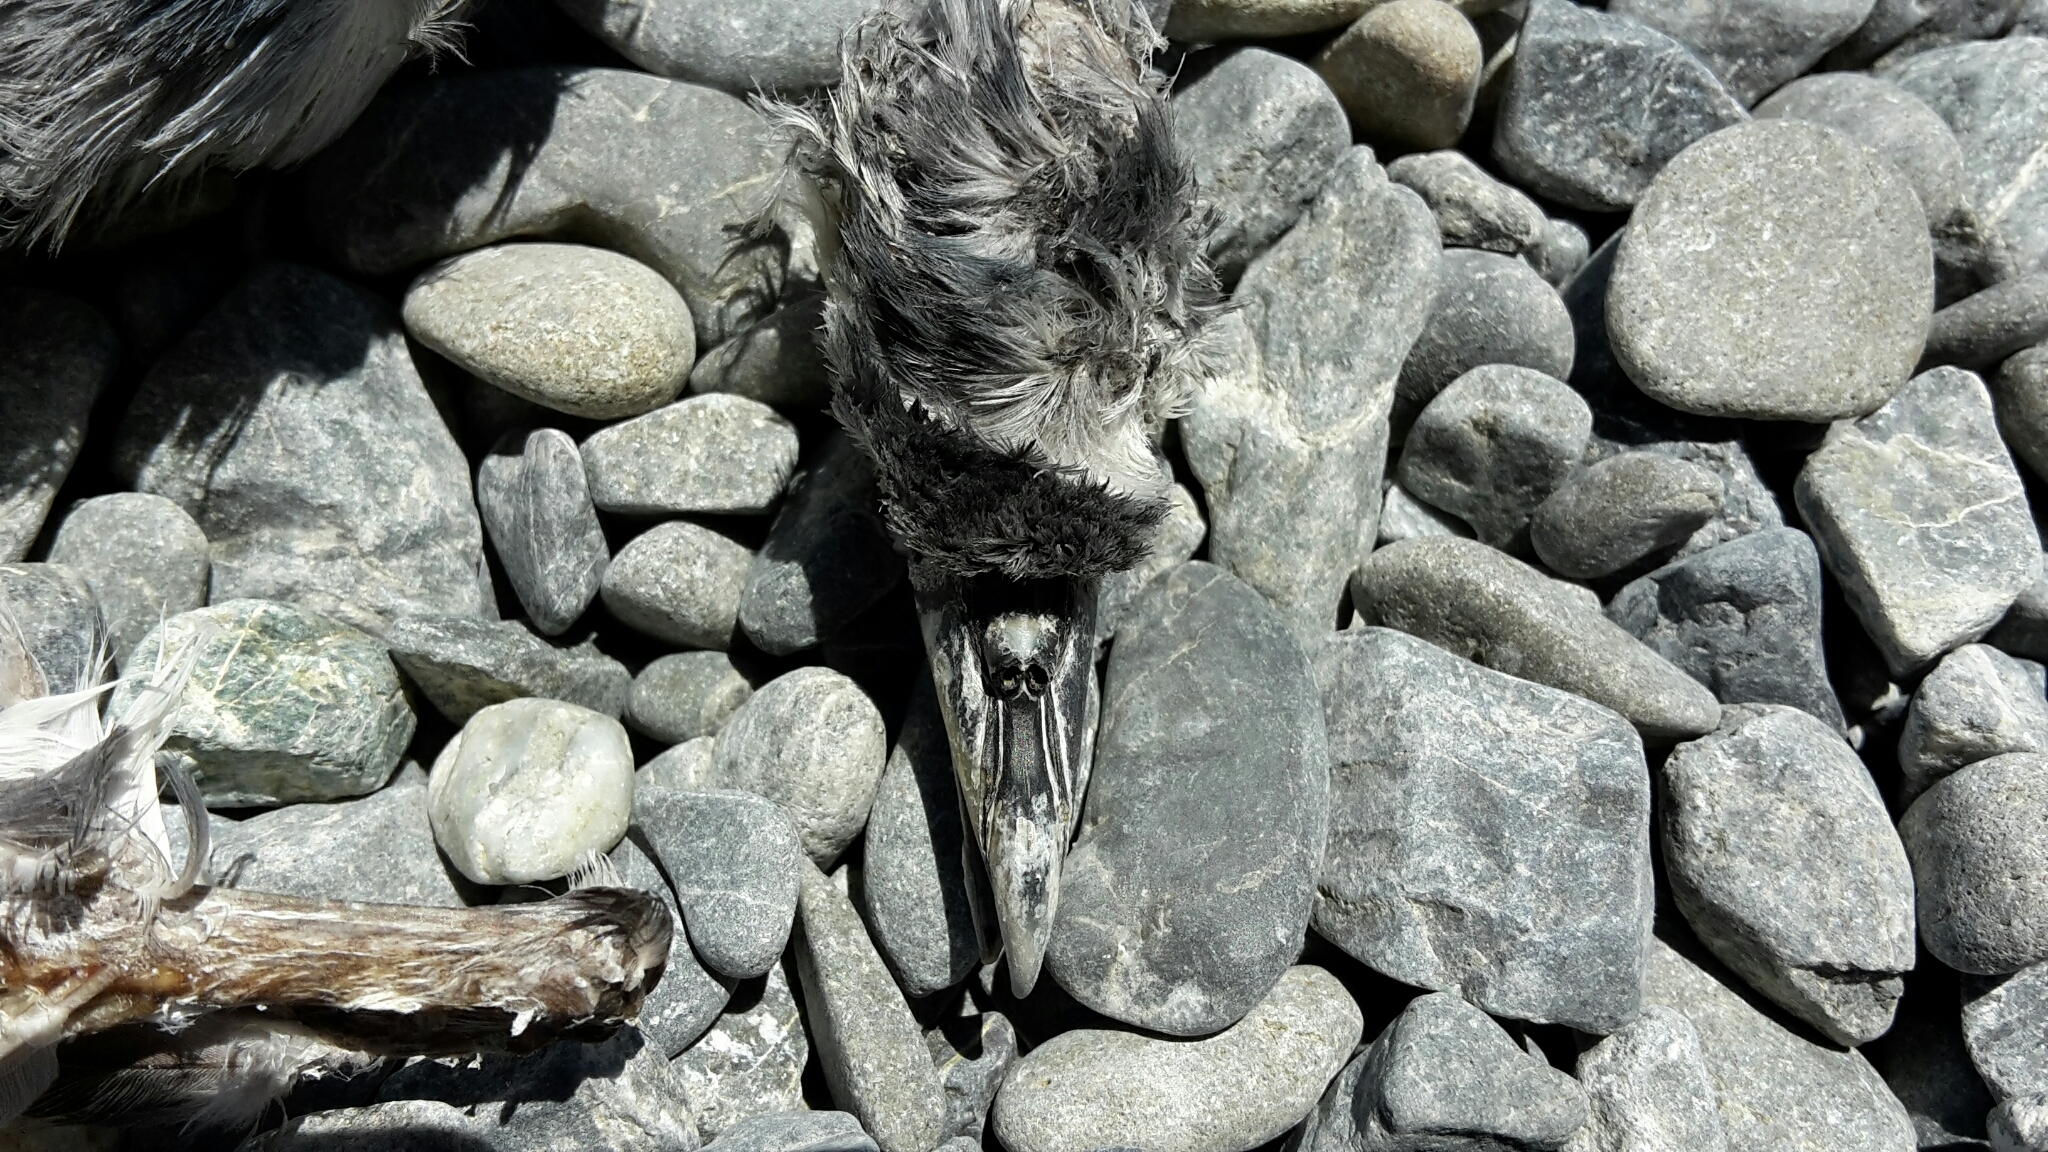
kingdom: Animalia
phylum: Chordata
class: Aves
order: Procellariiformes
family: Procellariidae
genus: Pachyptila
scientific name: Pachyptila desolata
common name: Antarctic prion
